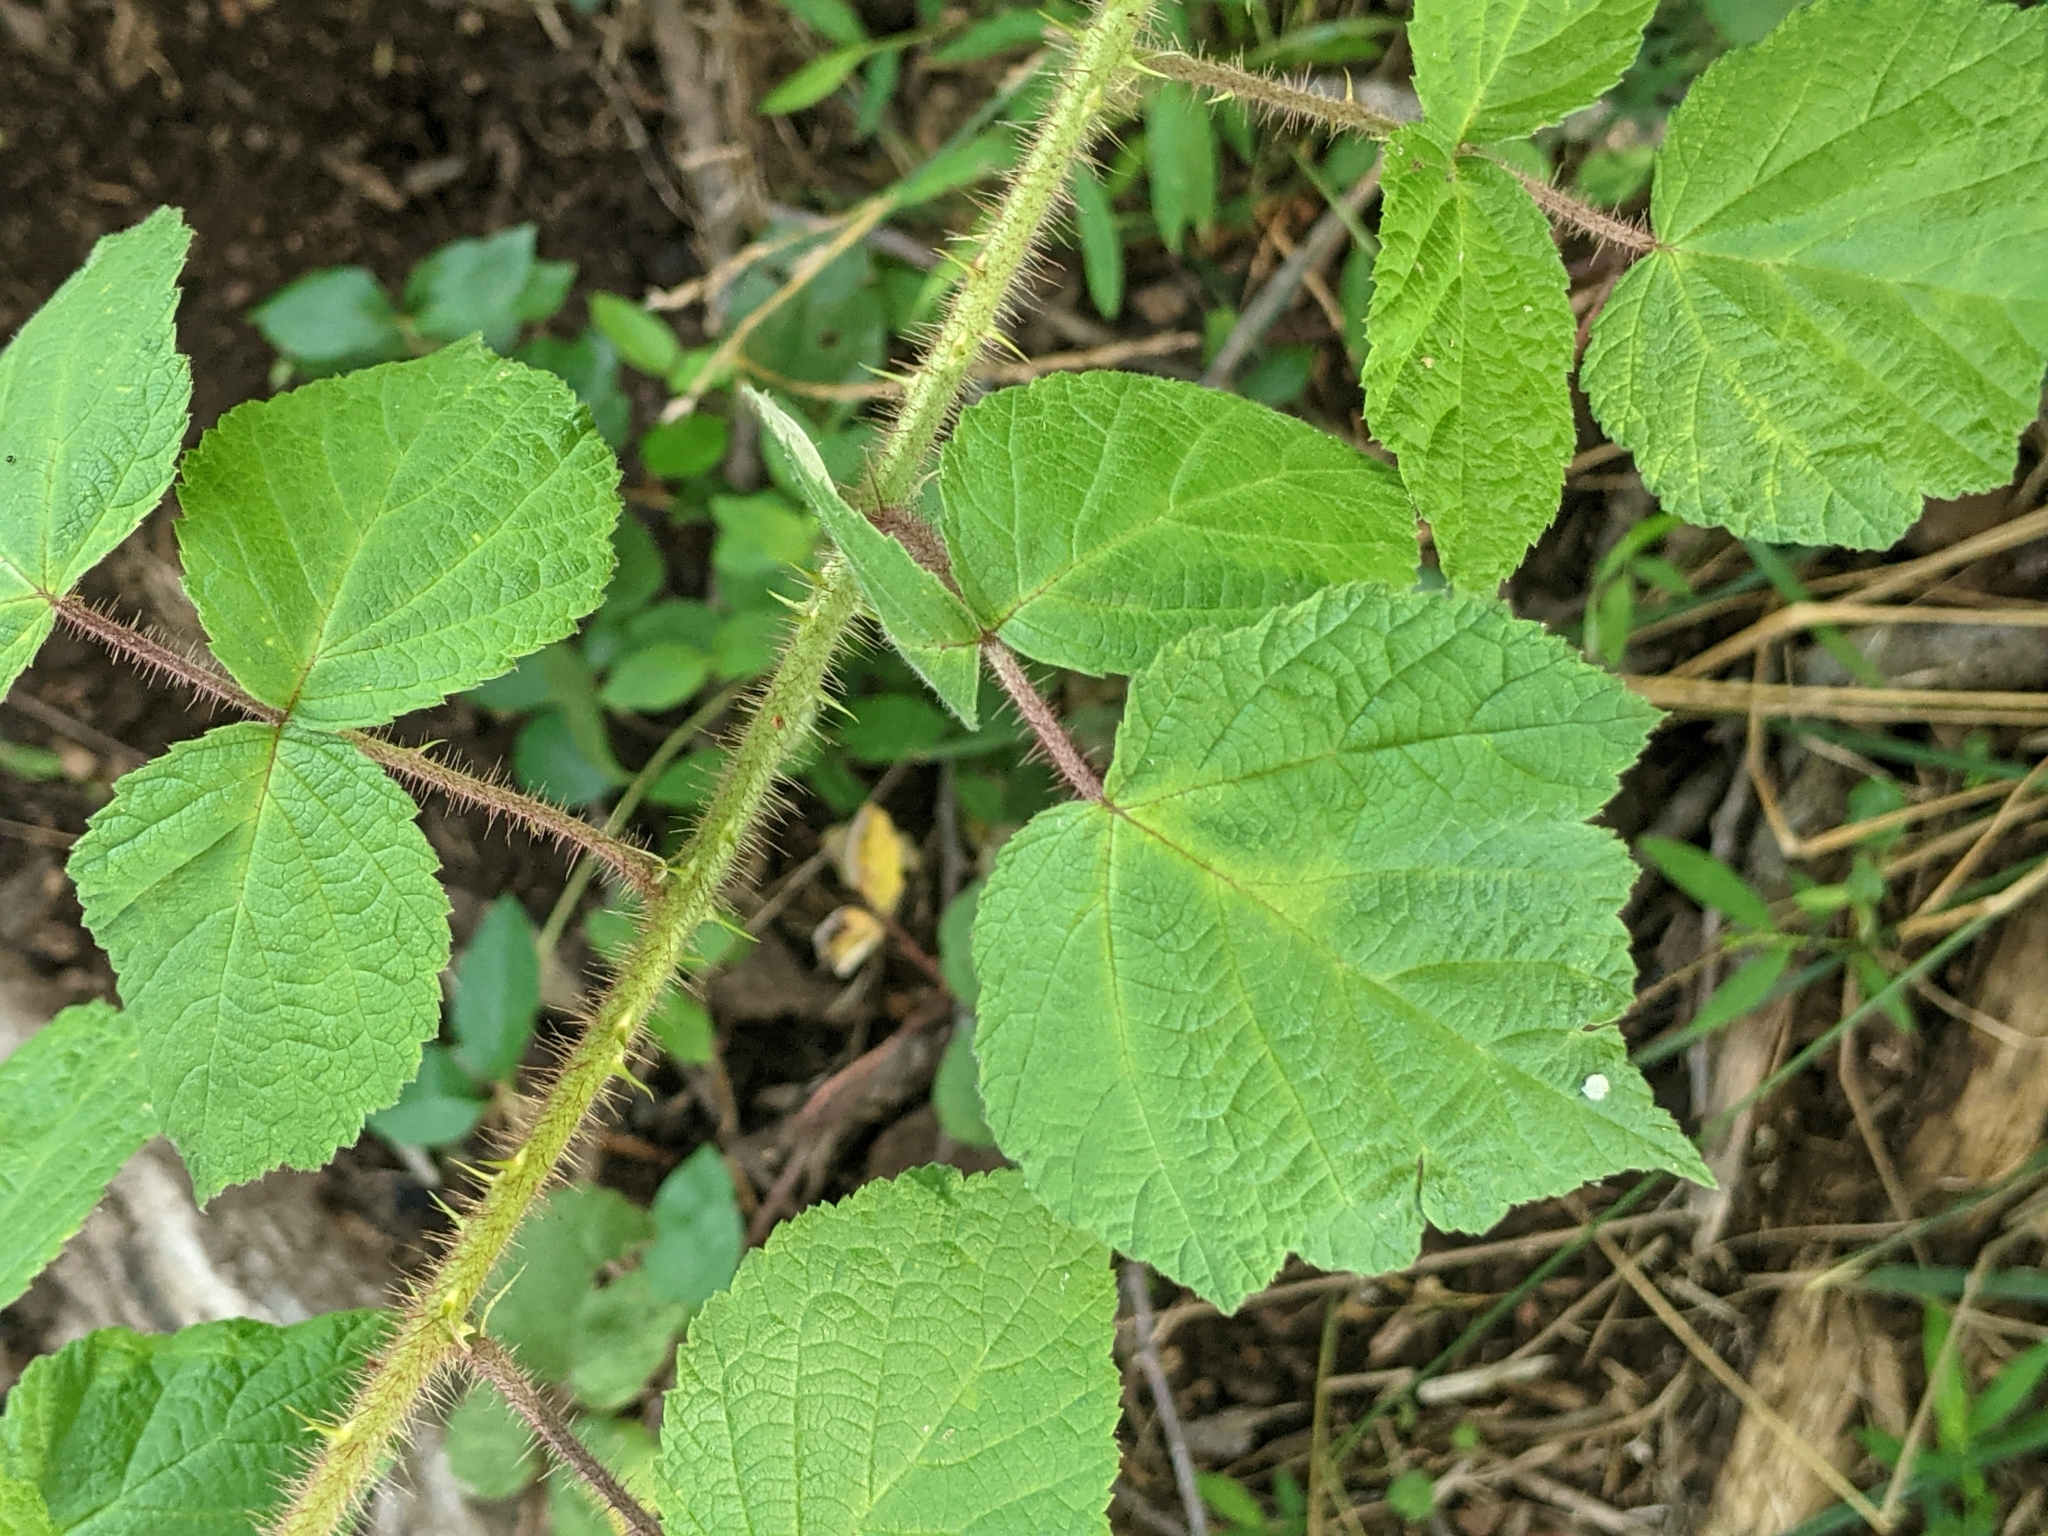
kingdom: Plantae
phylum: Tracheophyta
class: Magnoliopsida
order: Rosales
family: Rosaceae
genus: Rubus
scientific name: Rubus phoenicolasius
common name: Japanese wineberry
